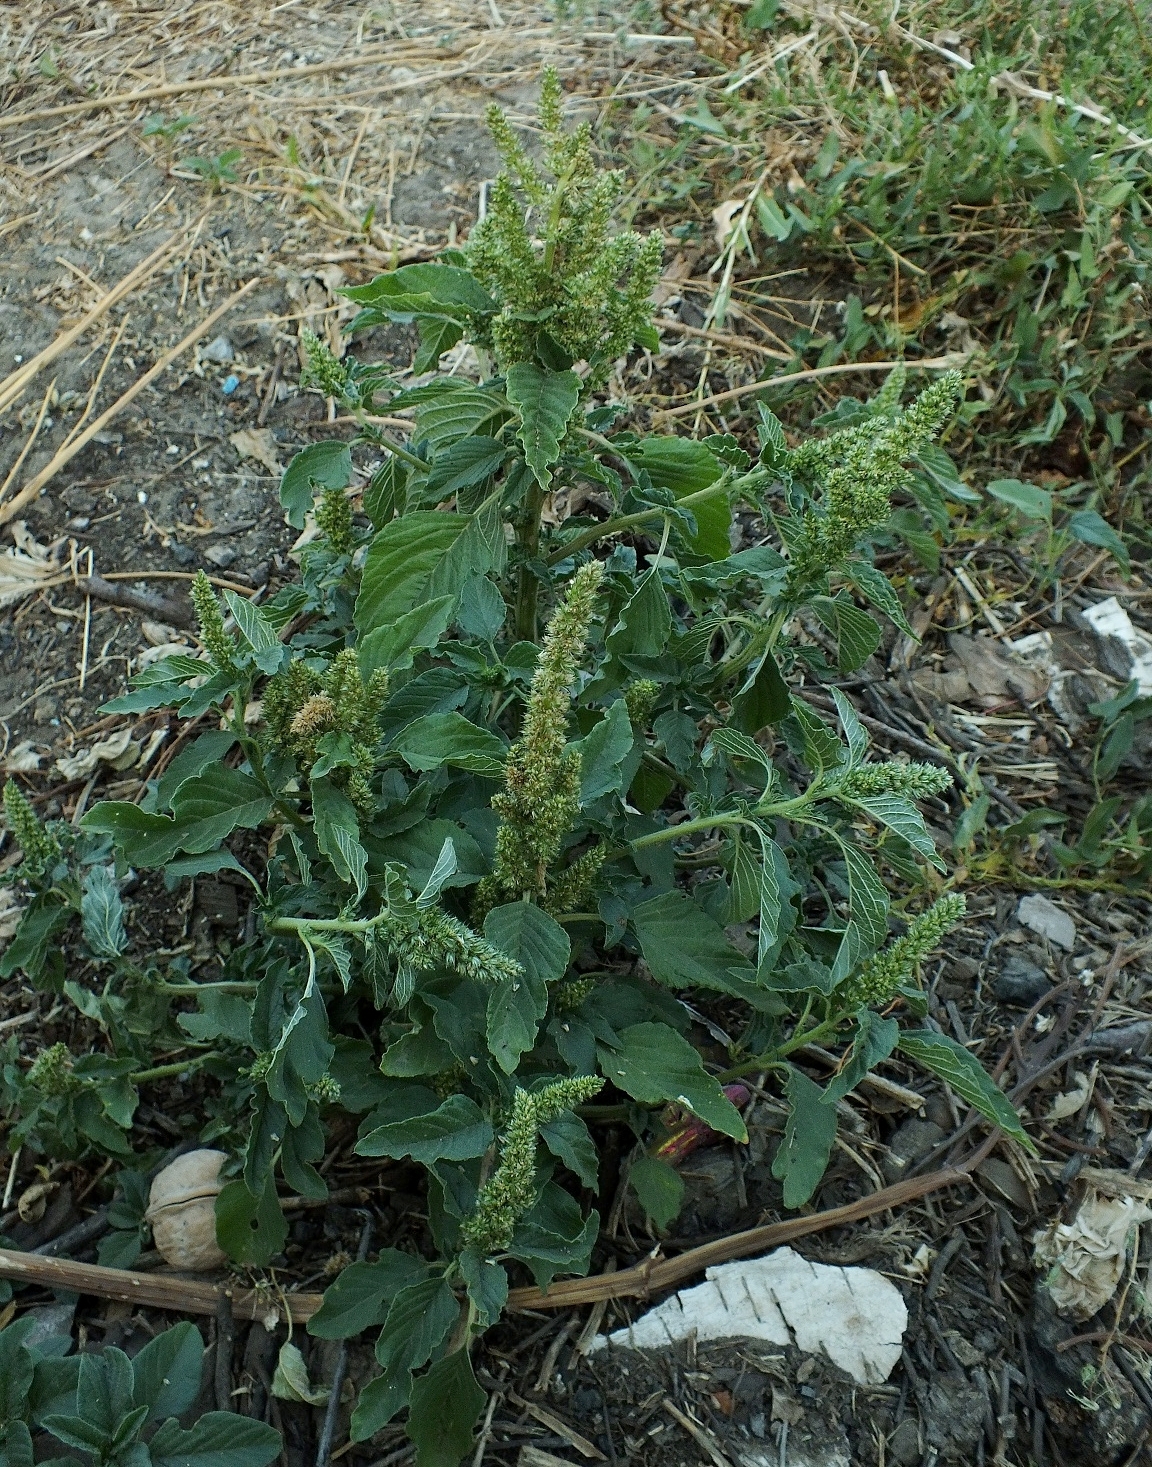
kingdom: Plantae
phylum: Tracheophyta
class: Magnoliopsida
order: Caryophyllales
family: Amaranthaceae
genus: Amaranthus
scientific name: Amaranthus retroflexus
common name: Redroot amaranth
